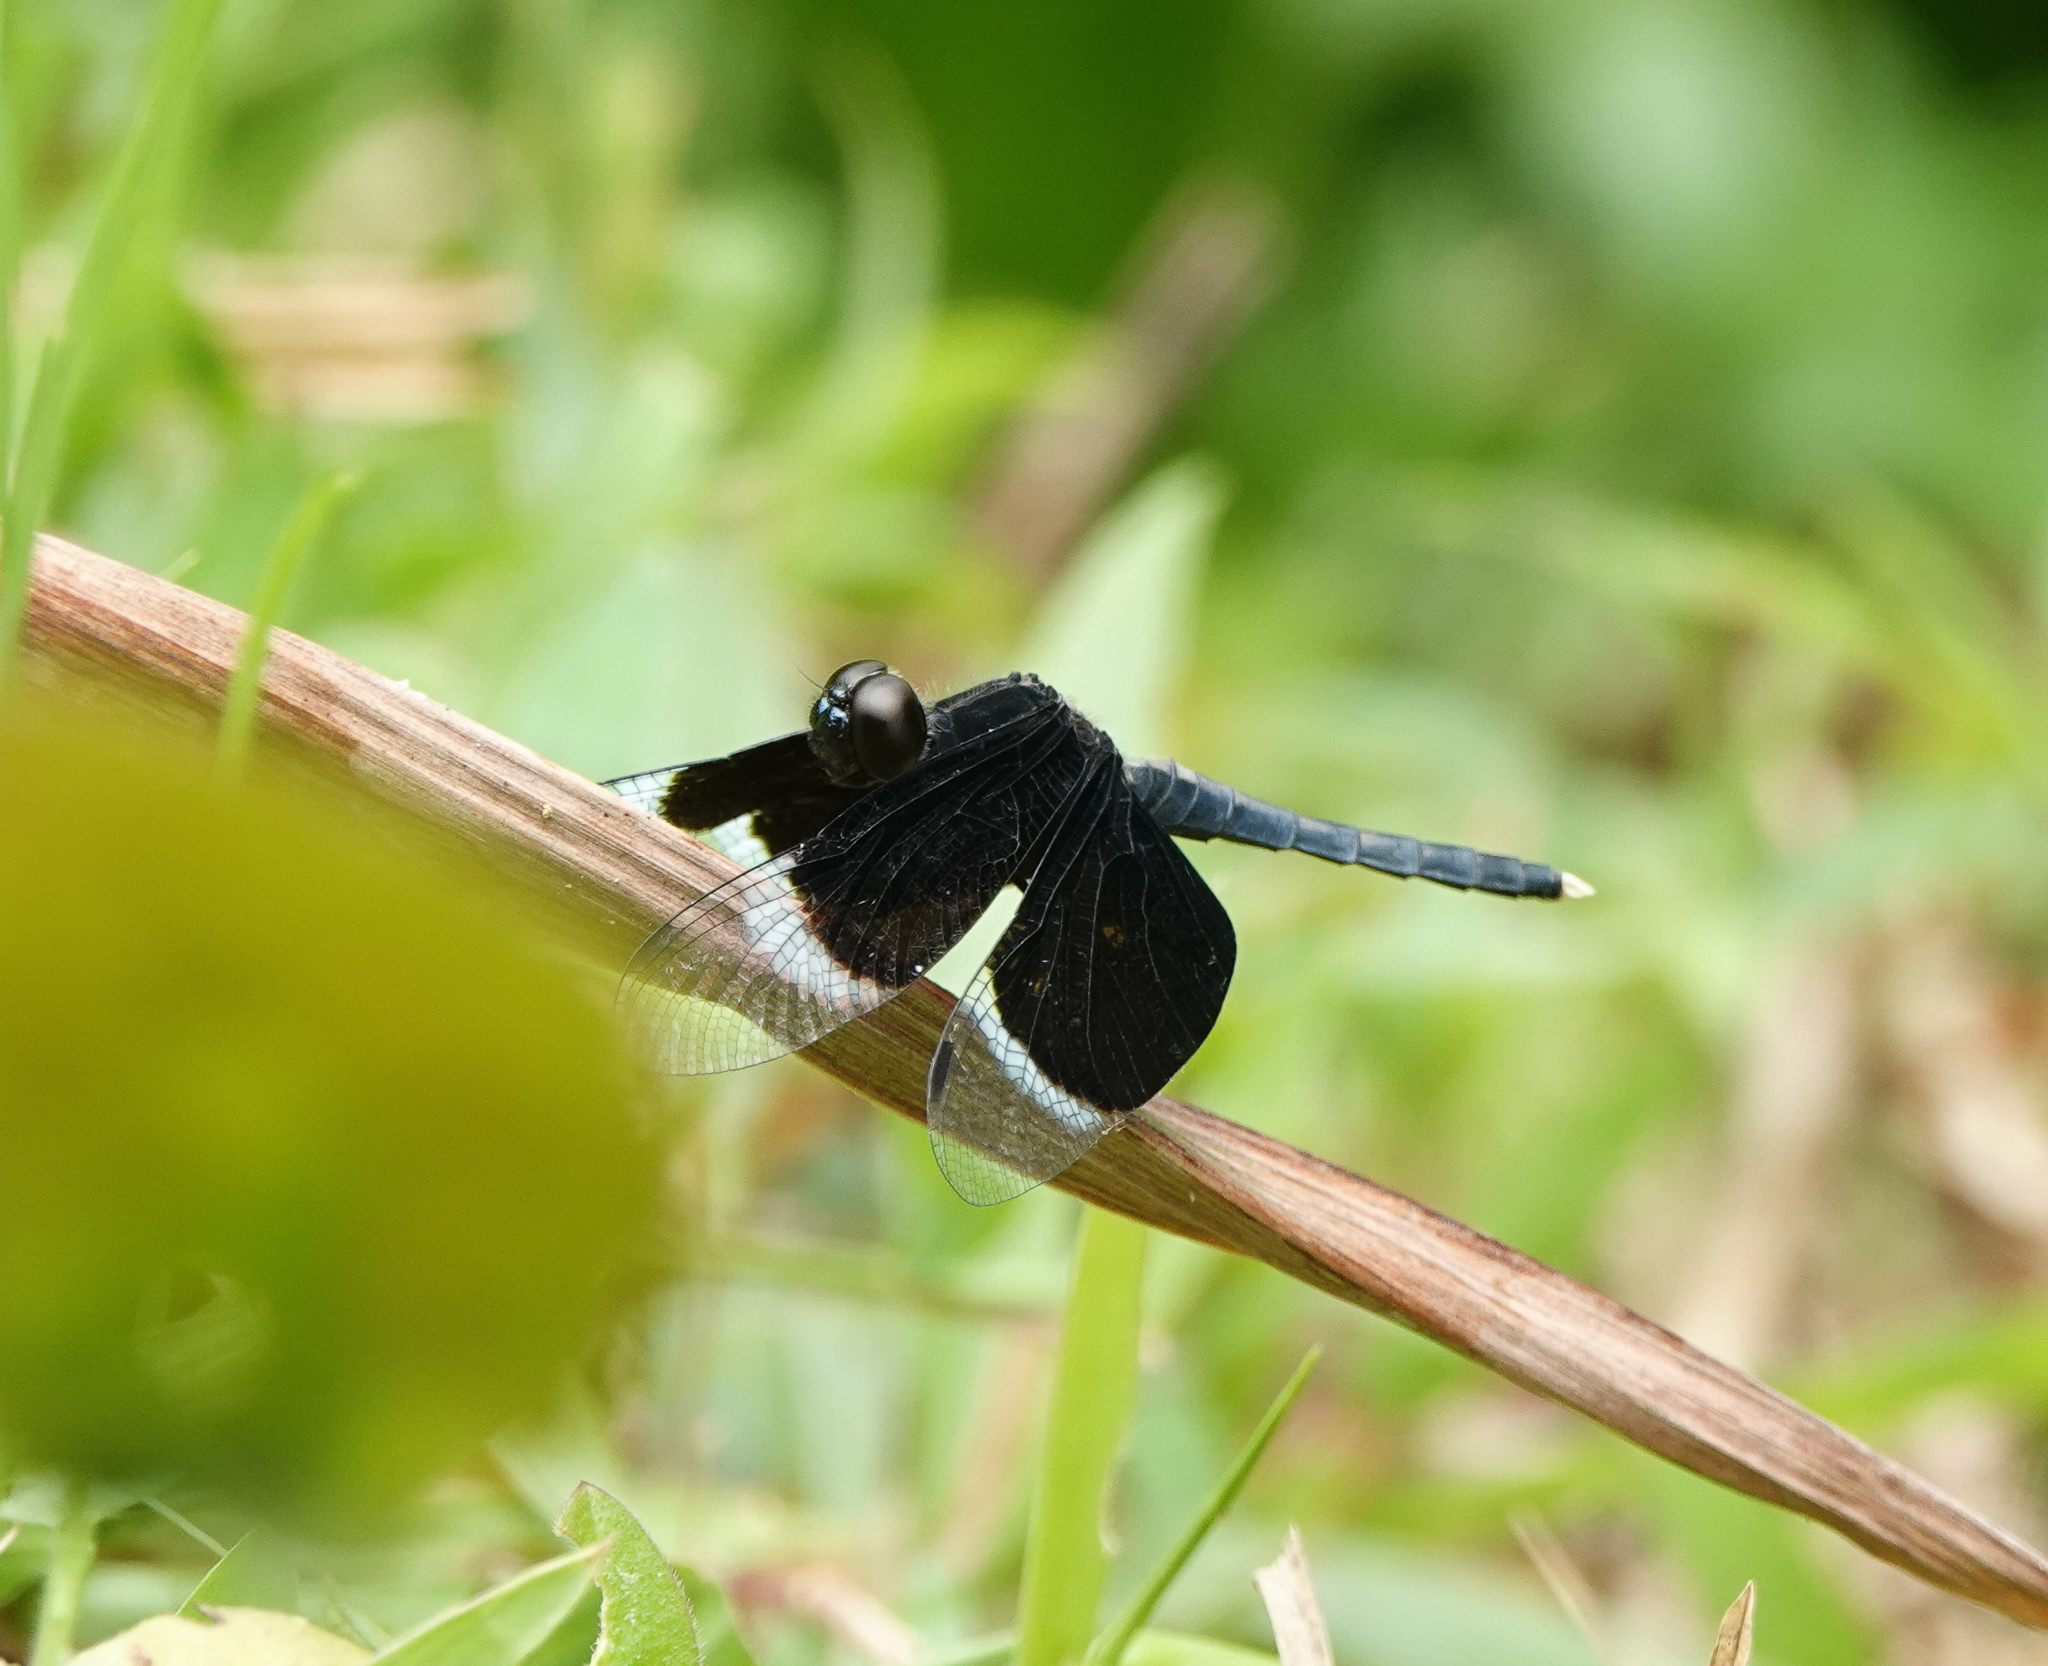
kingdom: Animalia
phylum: Arthropoda
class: Insecta
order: Odonata
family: Libellulidae
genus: Neurothemis
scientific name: Neurothemis tullia
